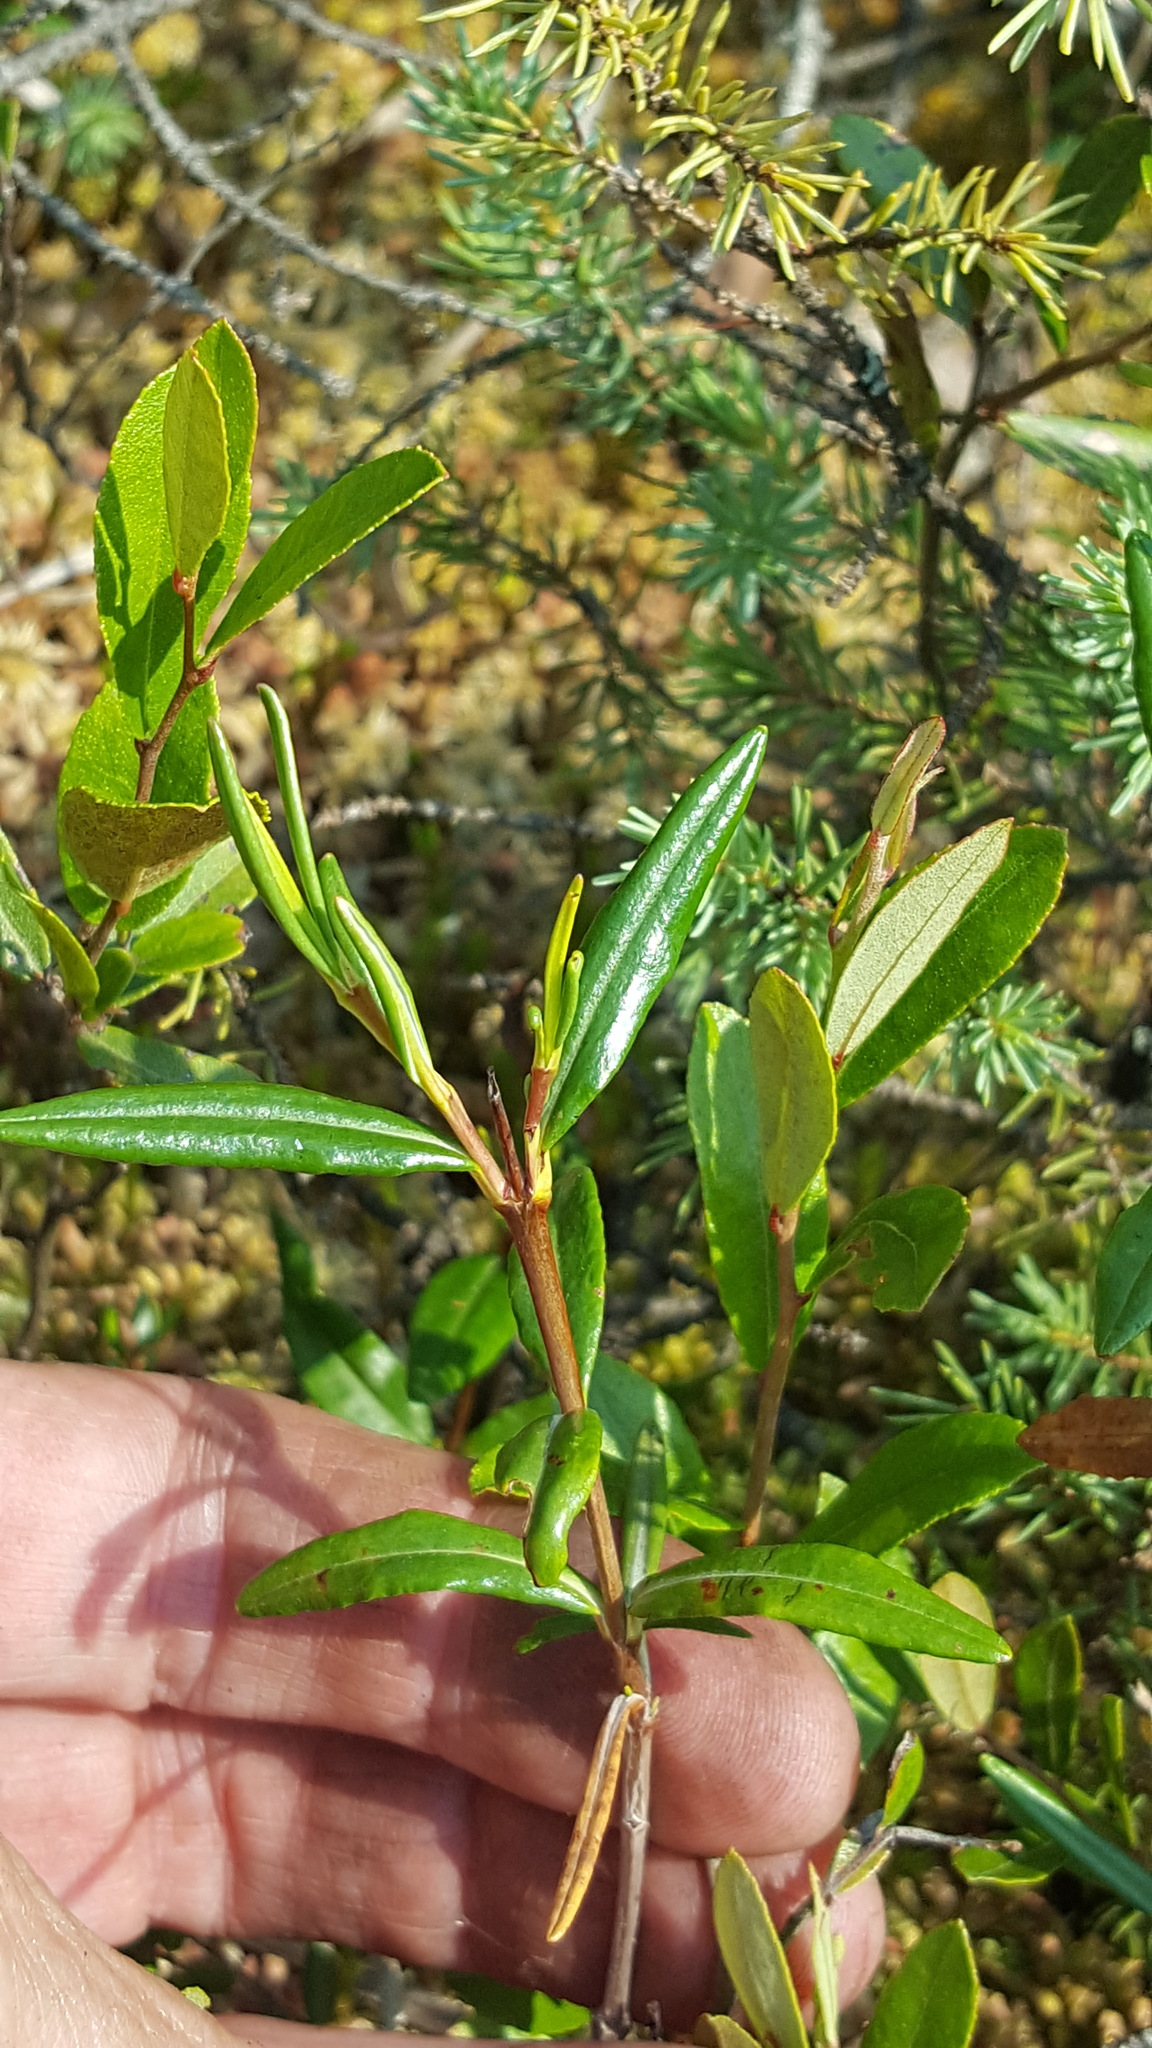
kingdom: Plantae
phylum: Tracheophyta
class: Magnoliopsida
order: Ericales
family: Ericaceae
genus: Kalmia
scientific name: Kalmia polifolia
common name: Bog-laurel
